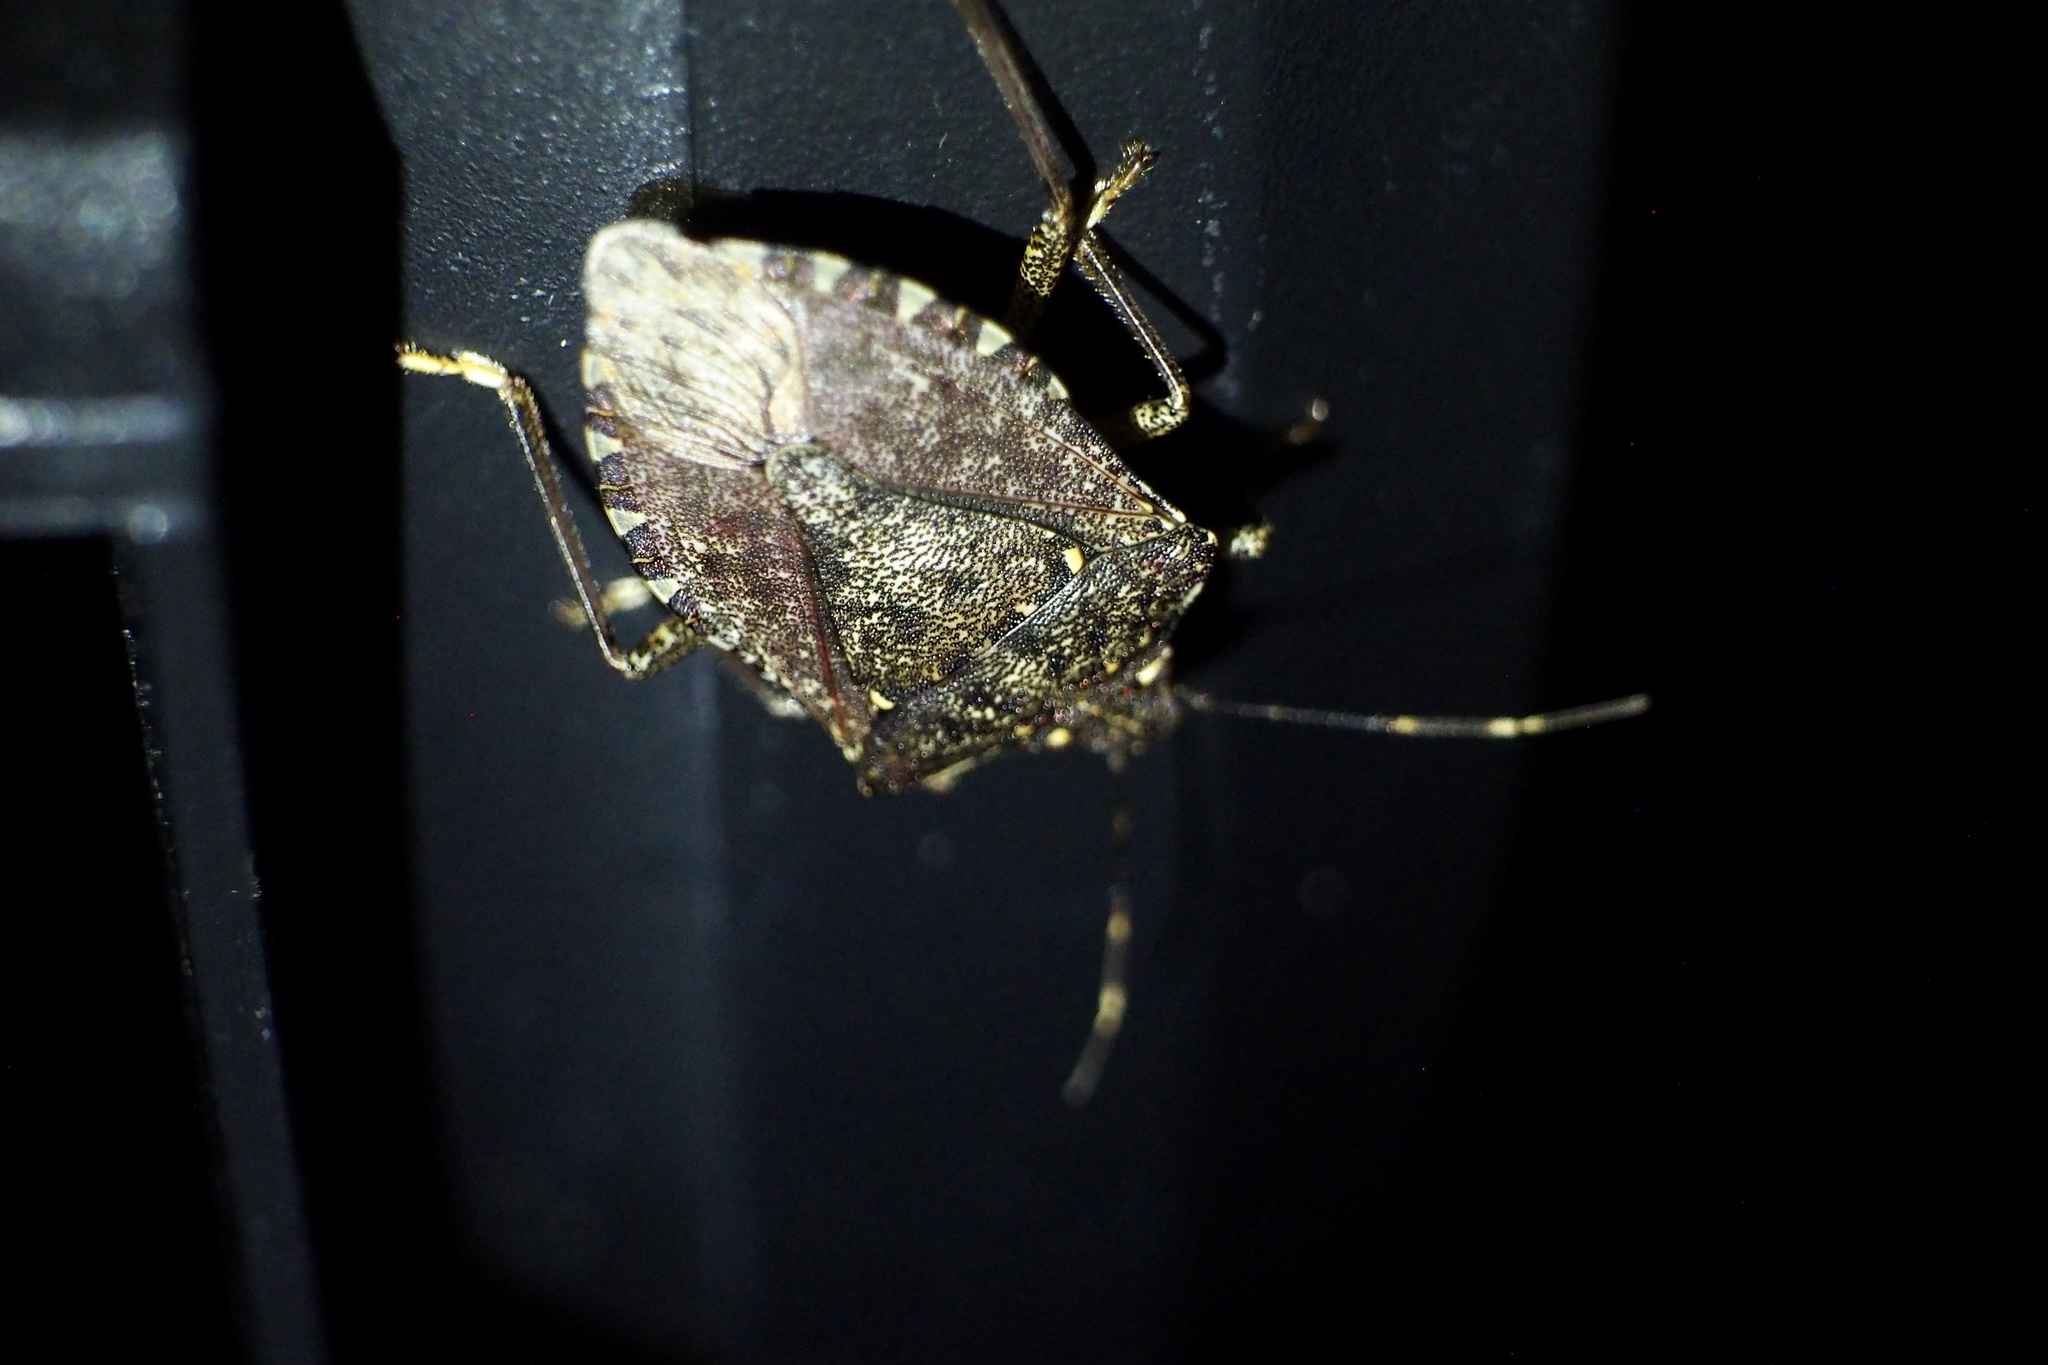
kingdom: Animalia
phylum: Arthropoda
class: Insecta
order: Hemiptera
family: Pentatomidae
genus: Halyomorpha
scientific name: Halyomorpha halys
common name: Brown marmorated stink bug
